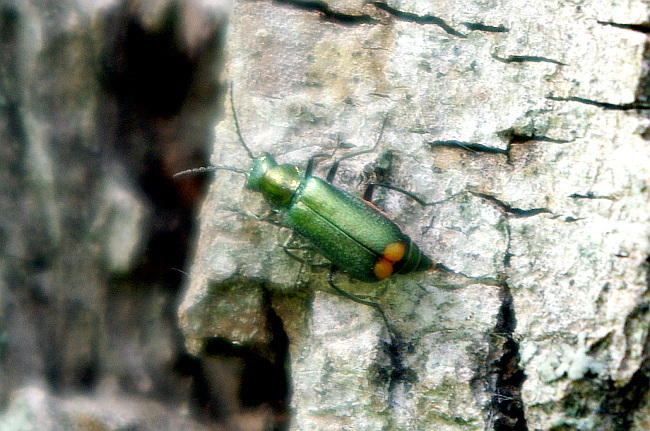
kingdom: Animalia
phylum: Arthropoda
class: Insecta
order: Coleoptera
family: Melyridae
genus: Malachius
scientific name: Malachius bipustulatus
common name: Malachite beetle
